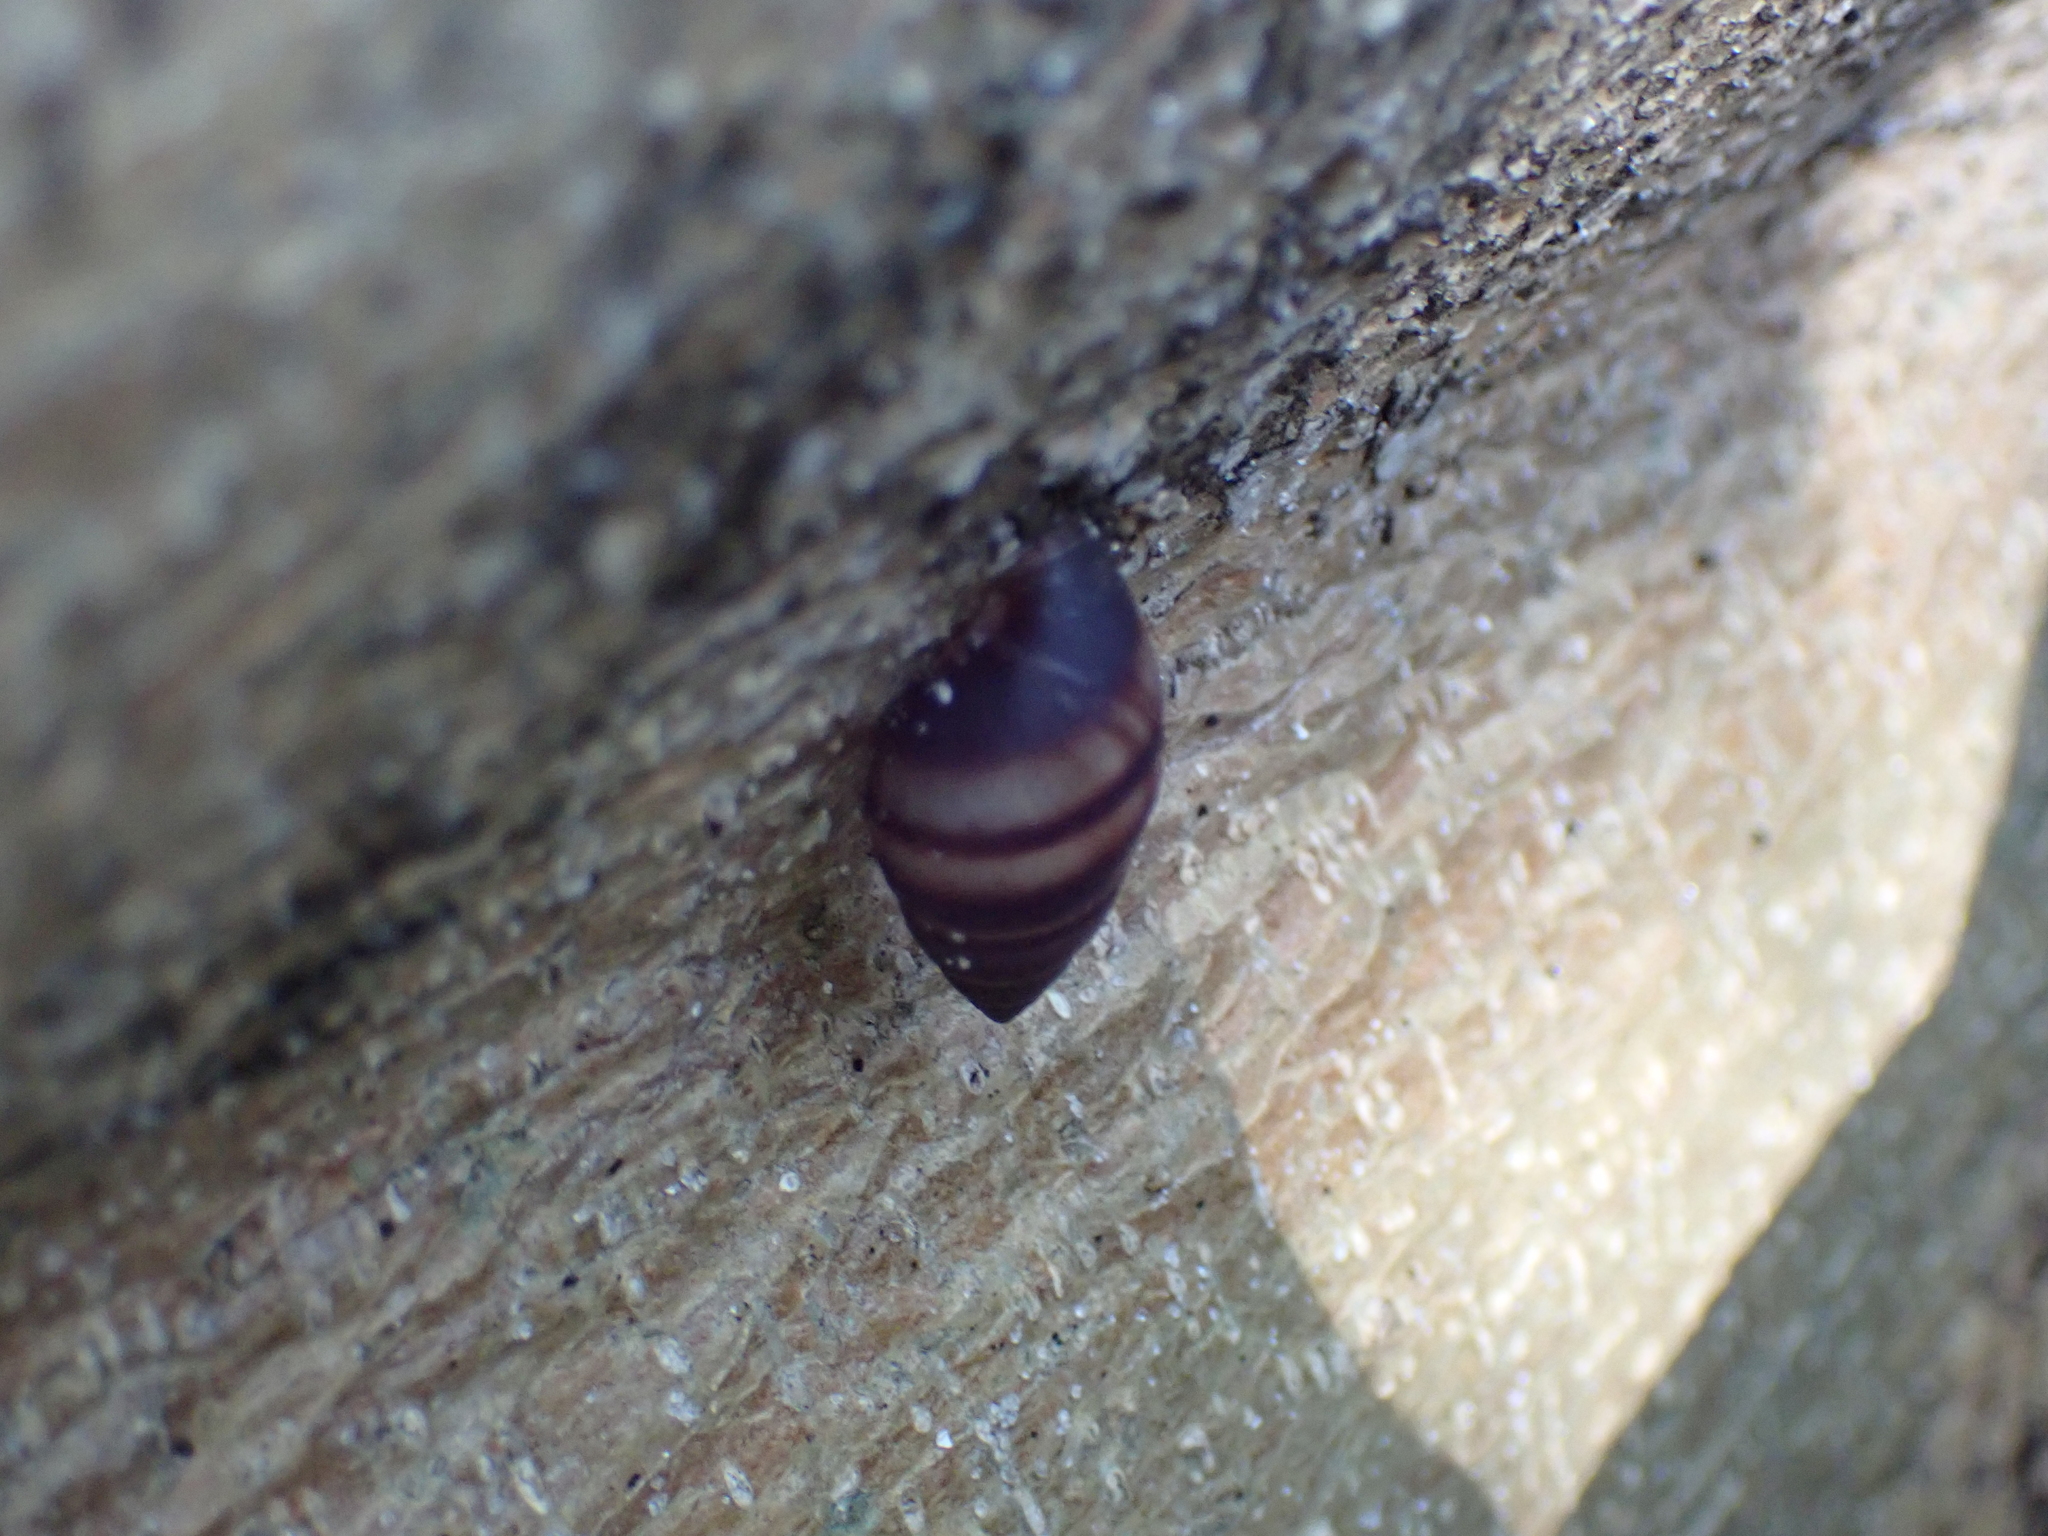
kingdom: Animalia
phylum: Mollusca
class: Gastropoda
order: Stylommatophora
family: Bulimulidae
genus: Bulimulus
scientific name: Bulimulus guadalupensis
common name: West indian bulimulus
